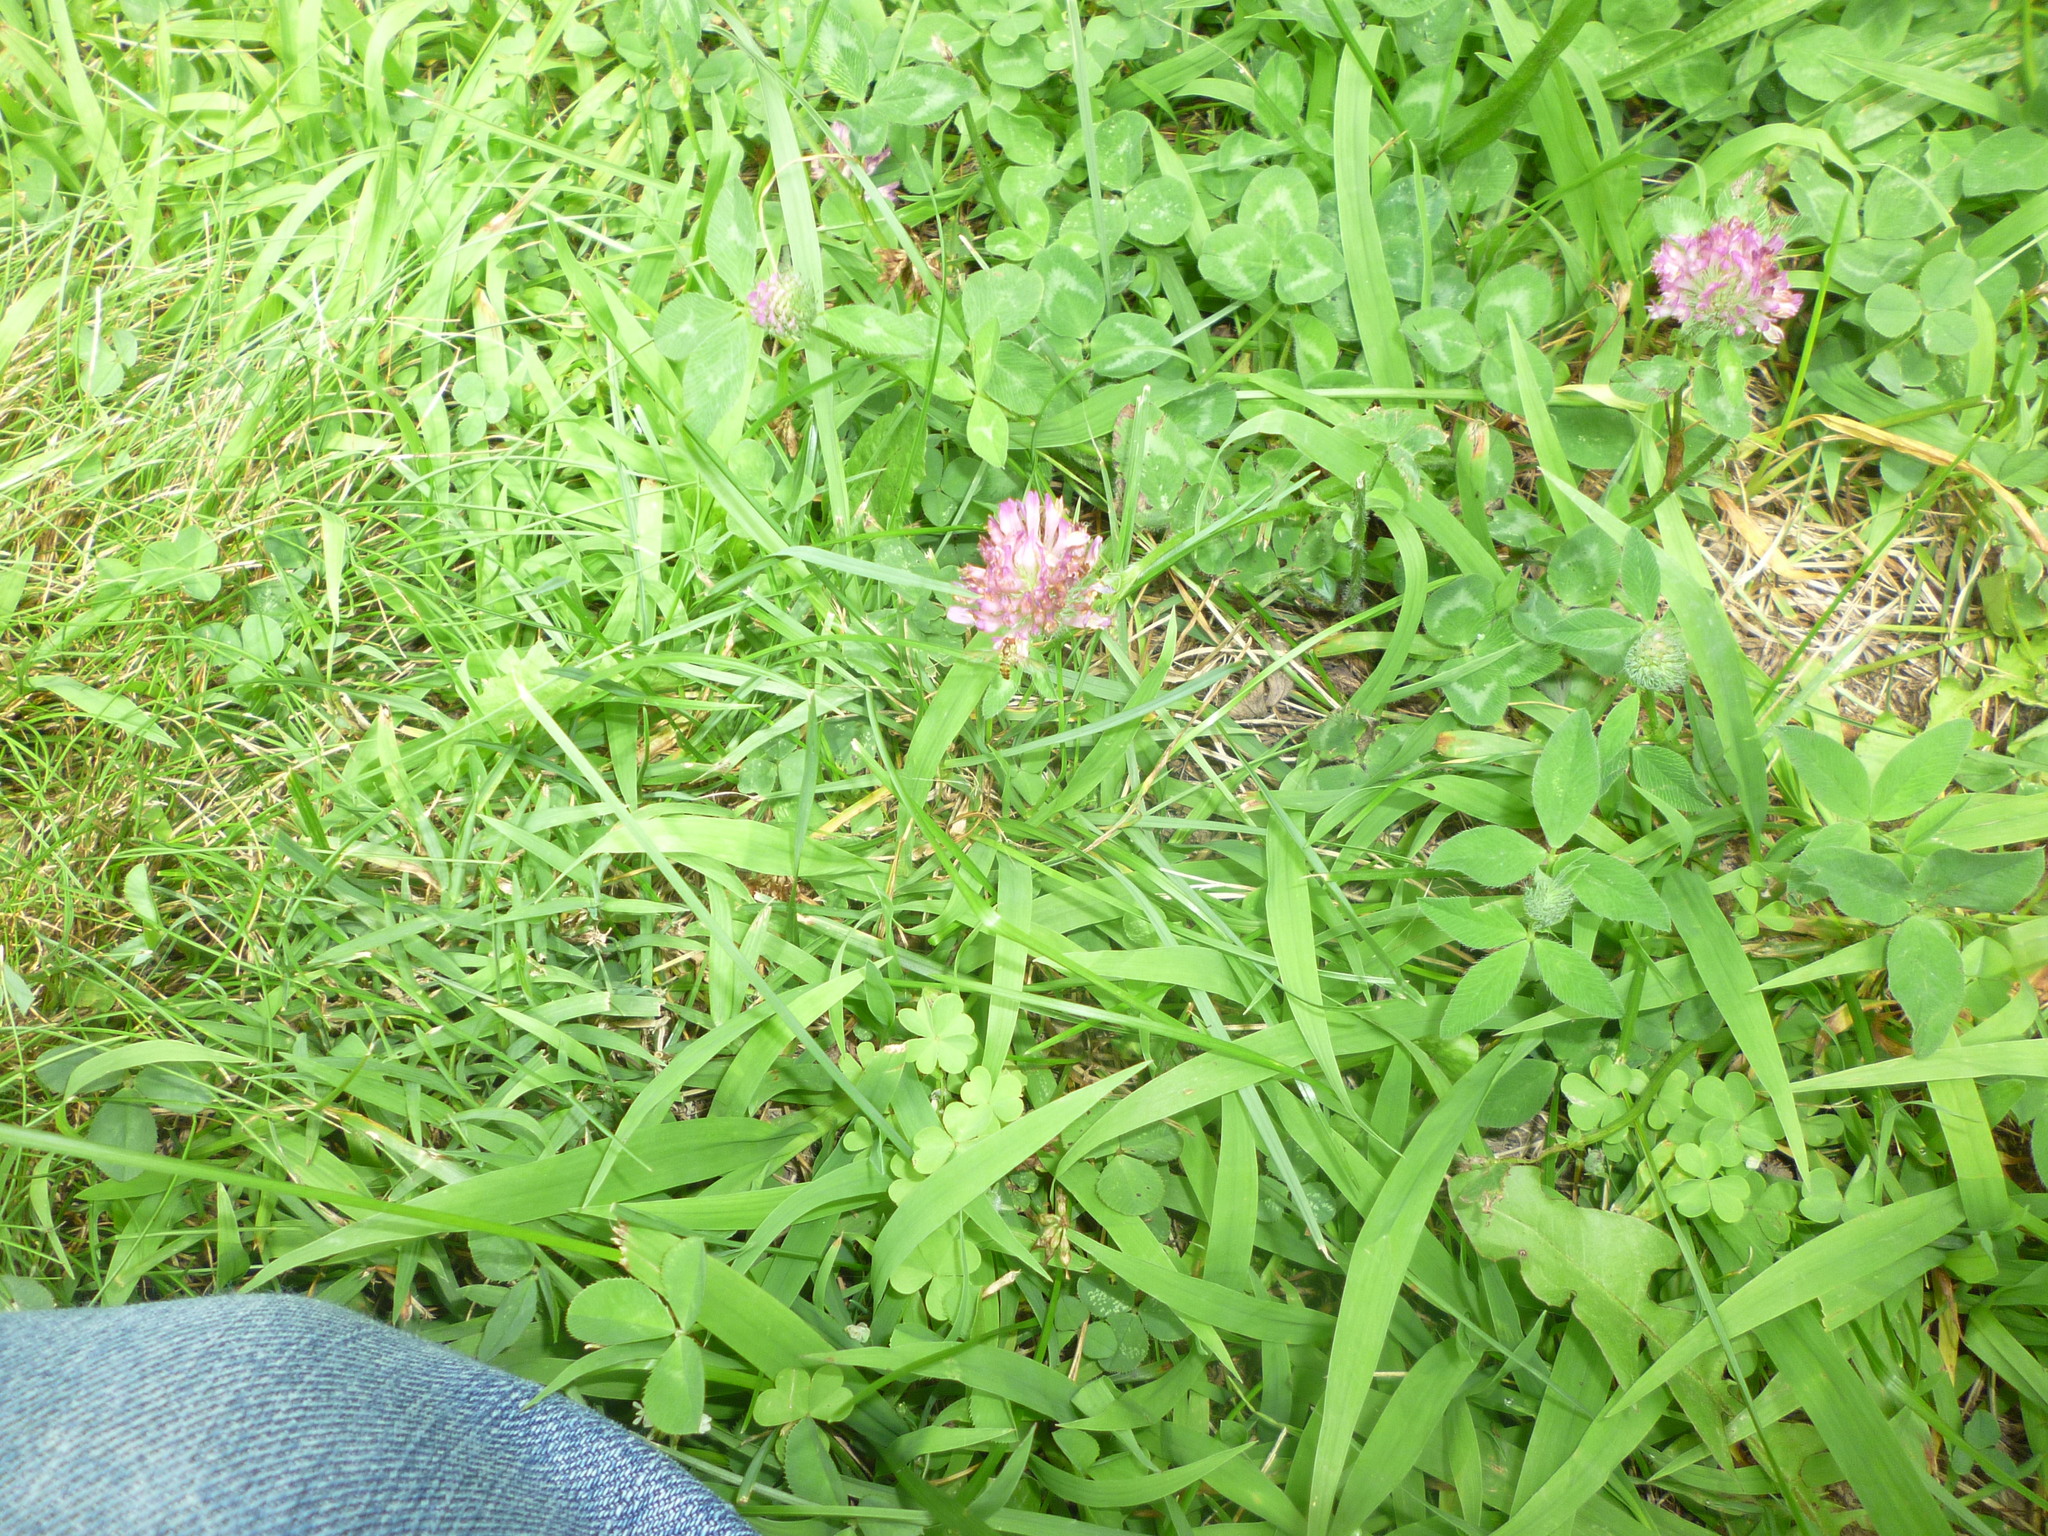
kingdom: Plantae
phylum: Tracheophyta
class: Magnoliopsida
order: Fabales
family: Fabaceae
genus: Trifolium
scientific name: Trifolium pratense
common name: Red clover
